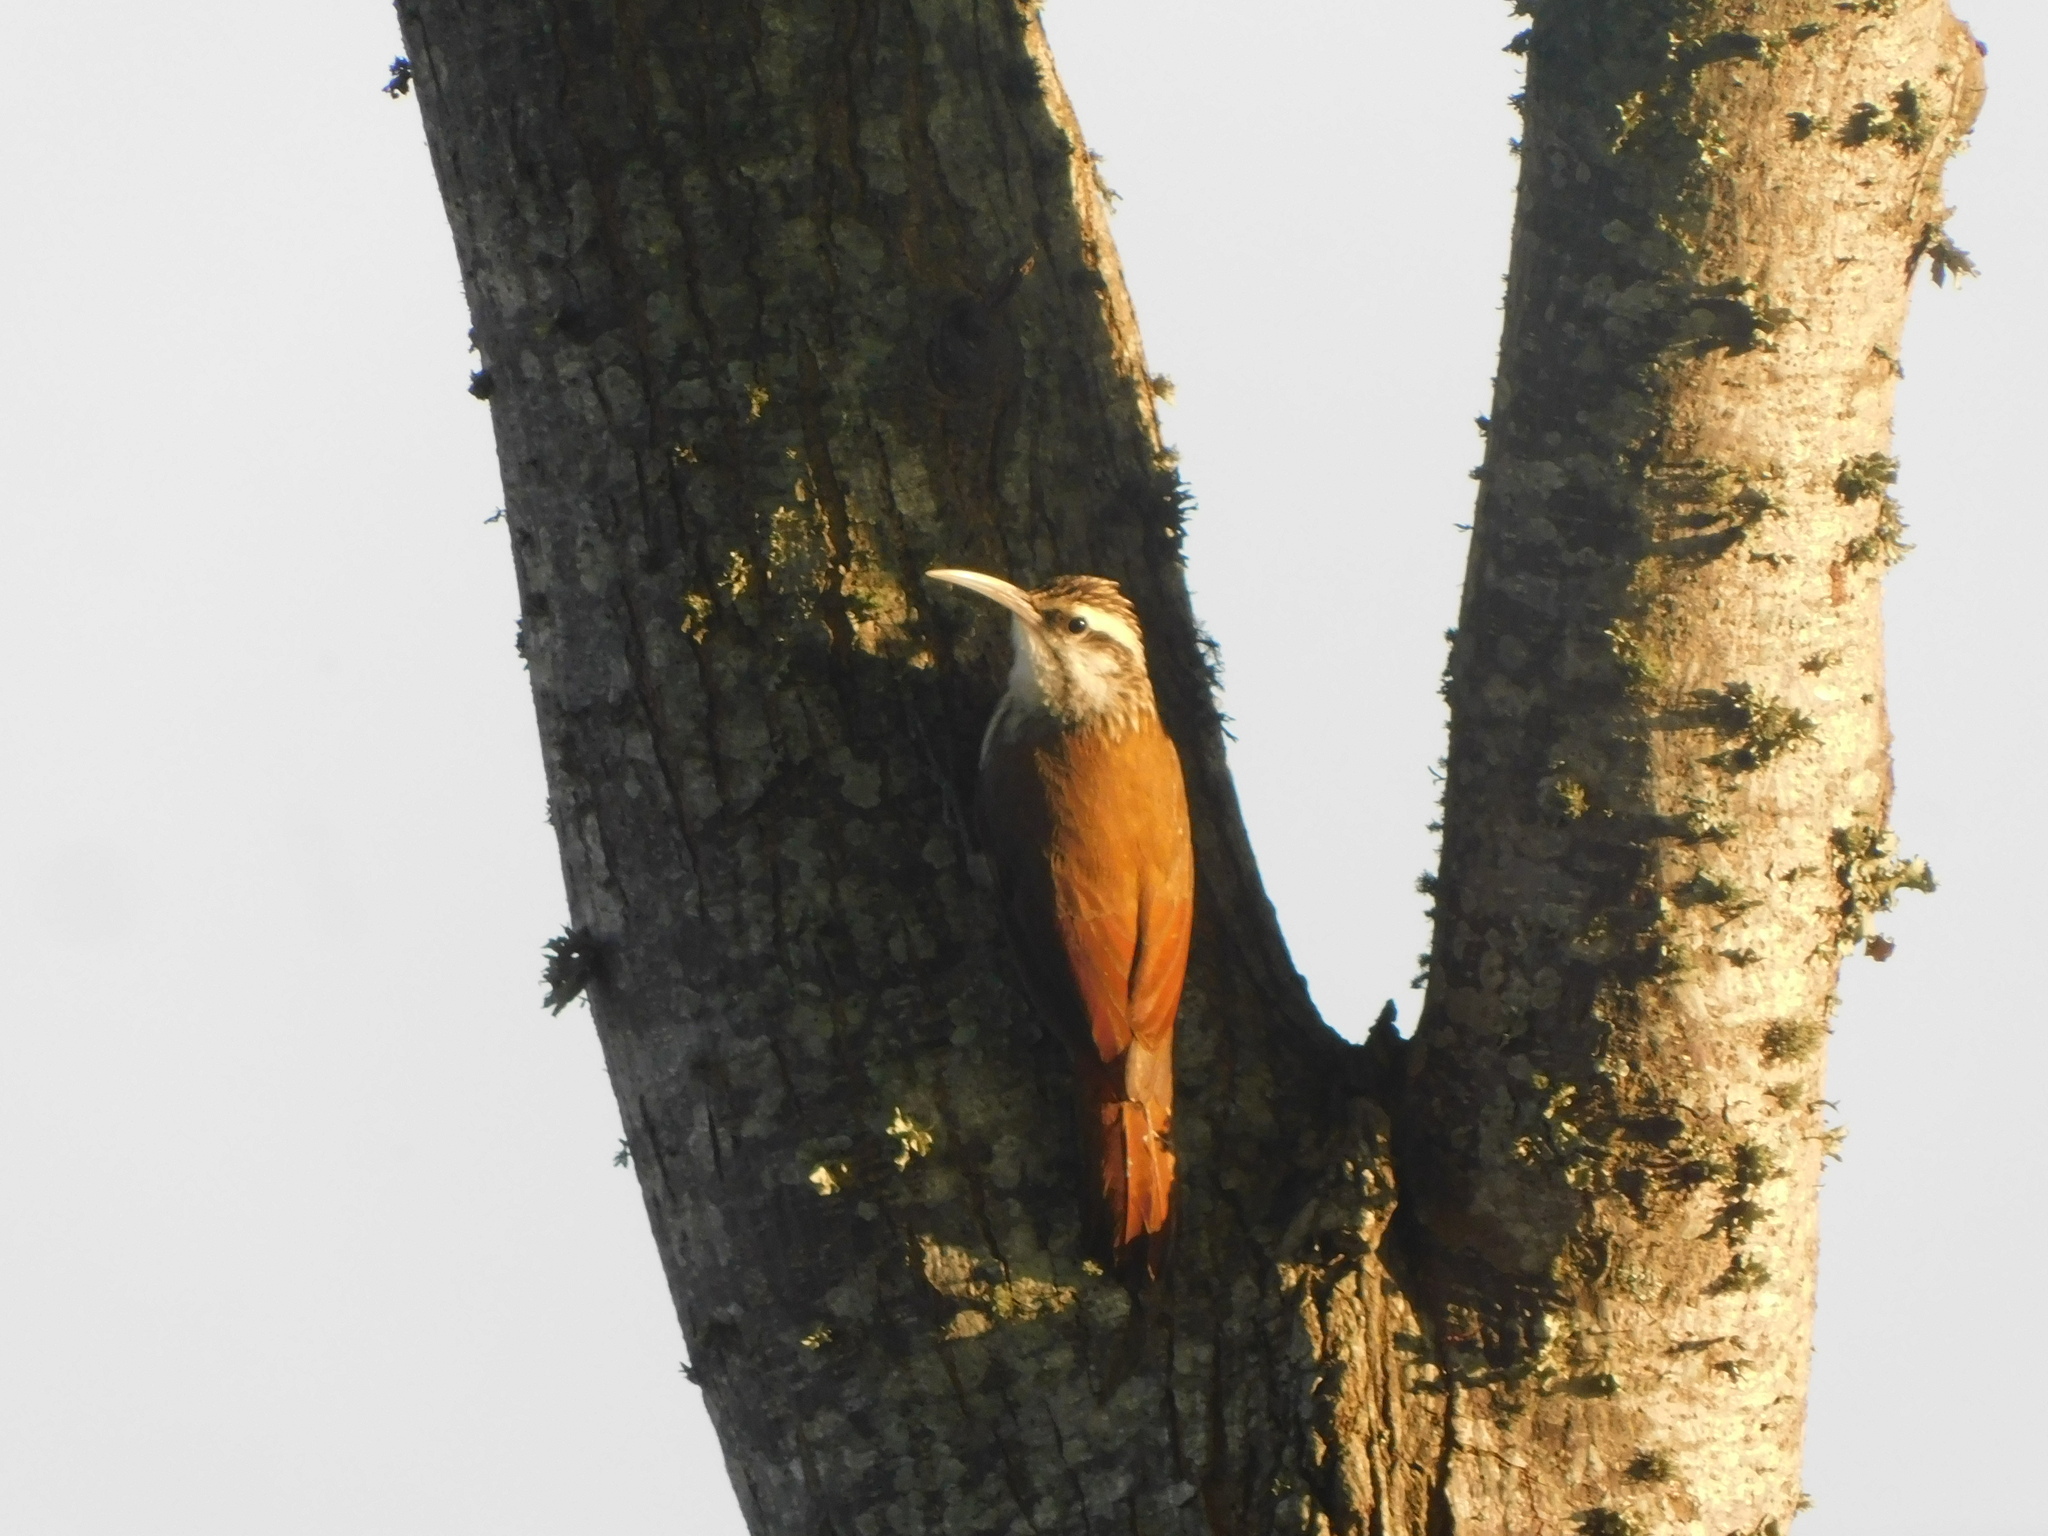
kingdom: Animalia
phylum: Chordata
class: Aves
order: Passeriformes
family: Furnariidae
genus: Lepidocolaptes
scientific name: Lepidocolaptes angustirostris
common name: Narrow-billed woodcreeper
